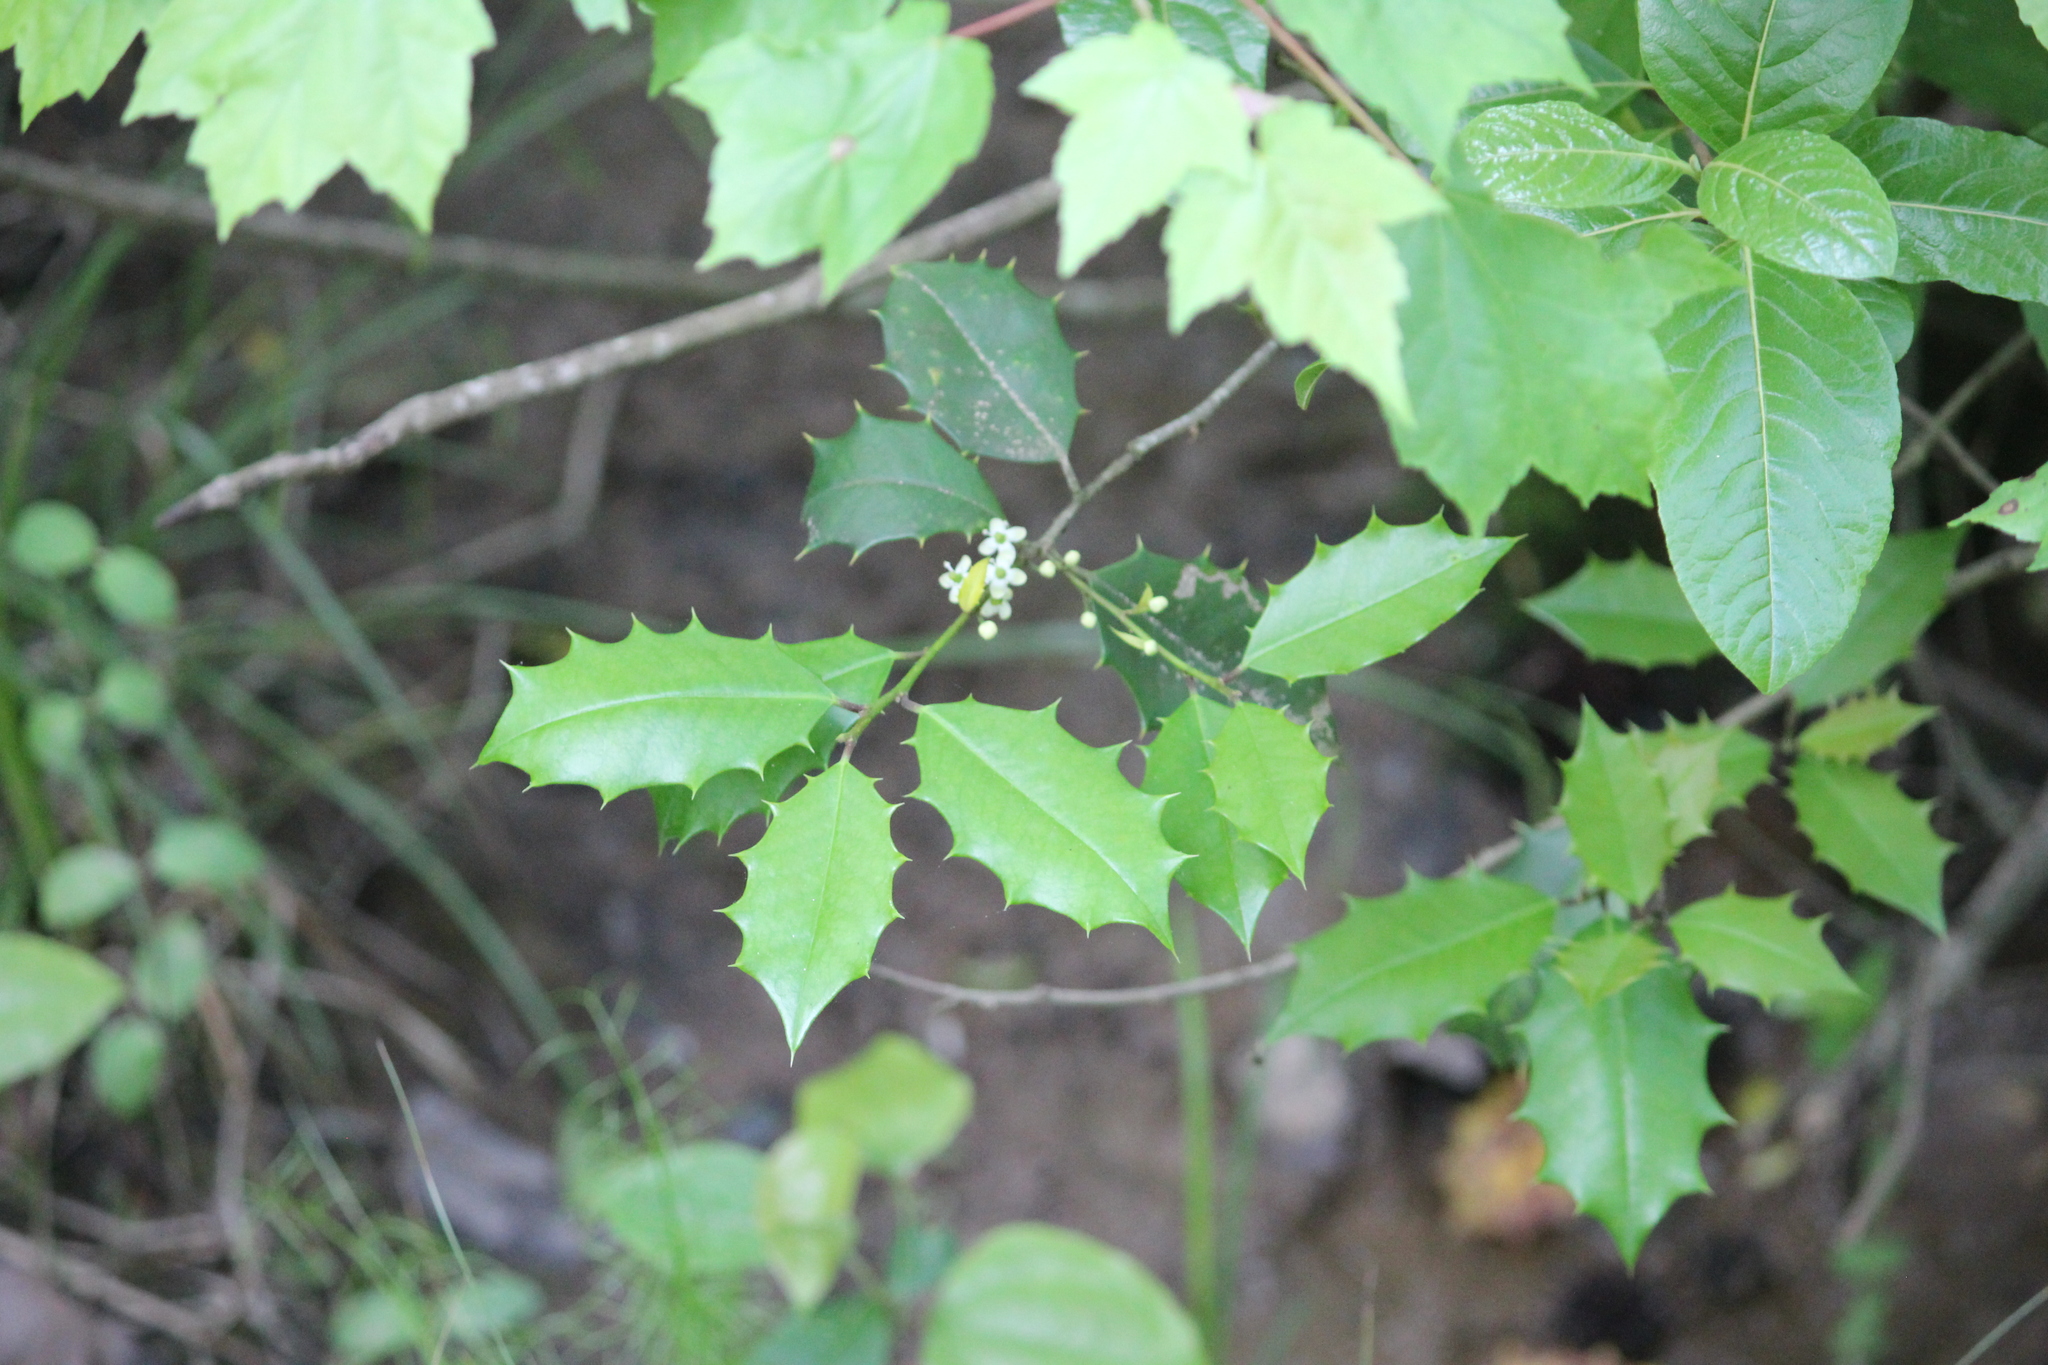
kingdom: Plantae
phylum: Tracheophyta
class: Magnoliopsida
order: Aquifoliales
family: Aquifoliaceae
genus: Ilex
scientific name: Ilex opaca
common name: American holly
